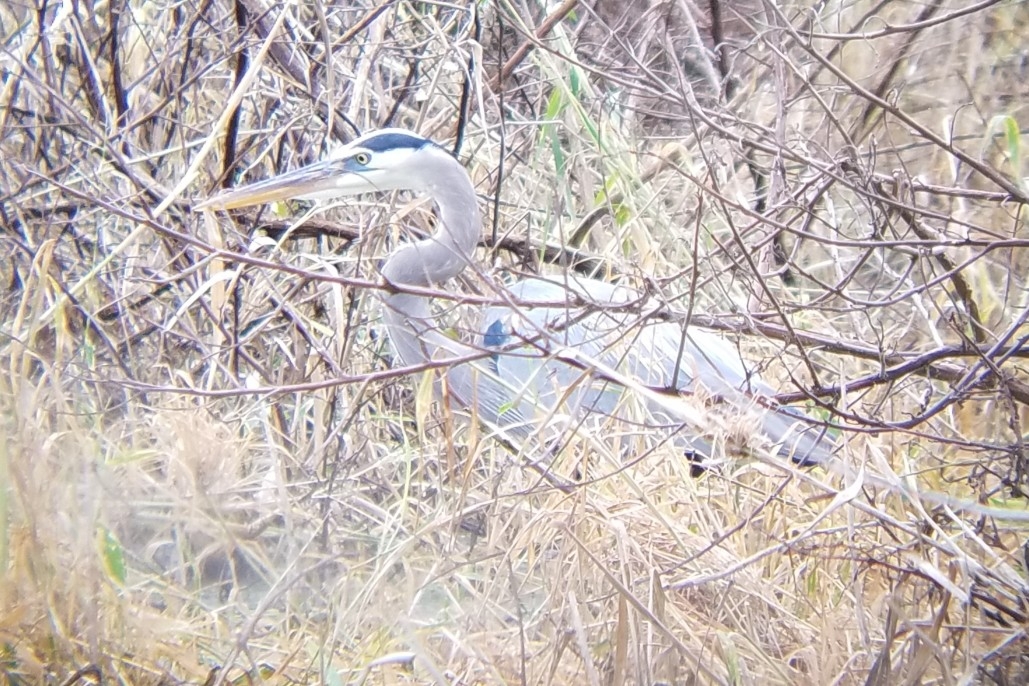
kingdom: Animalia
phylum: Chordata
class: Aves
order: Pelecaniformes
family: Ardeidae
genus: Ardea
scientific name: Ardea herodias
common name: Great blue heron
